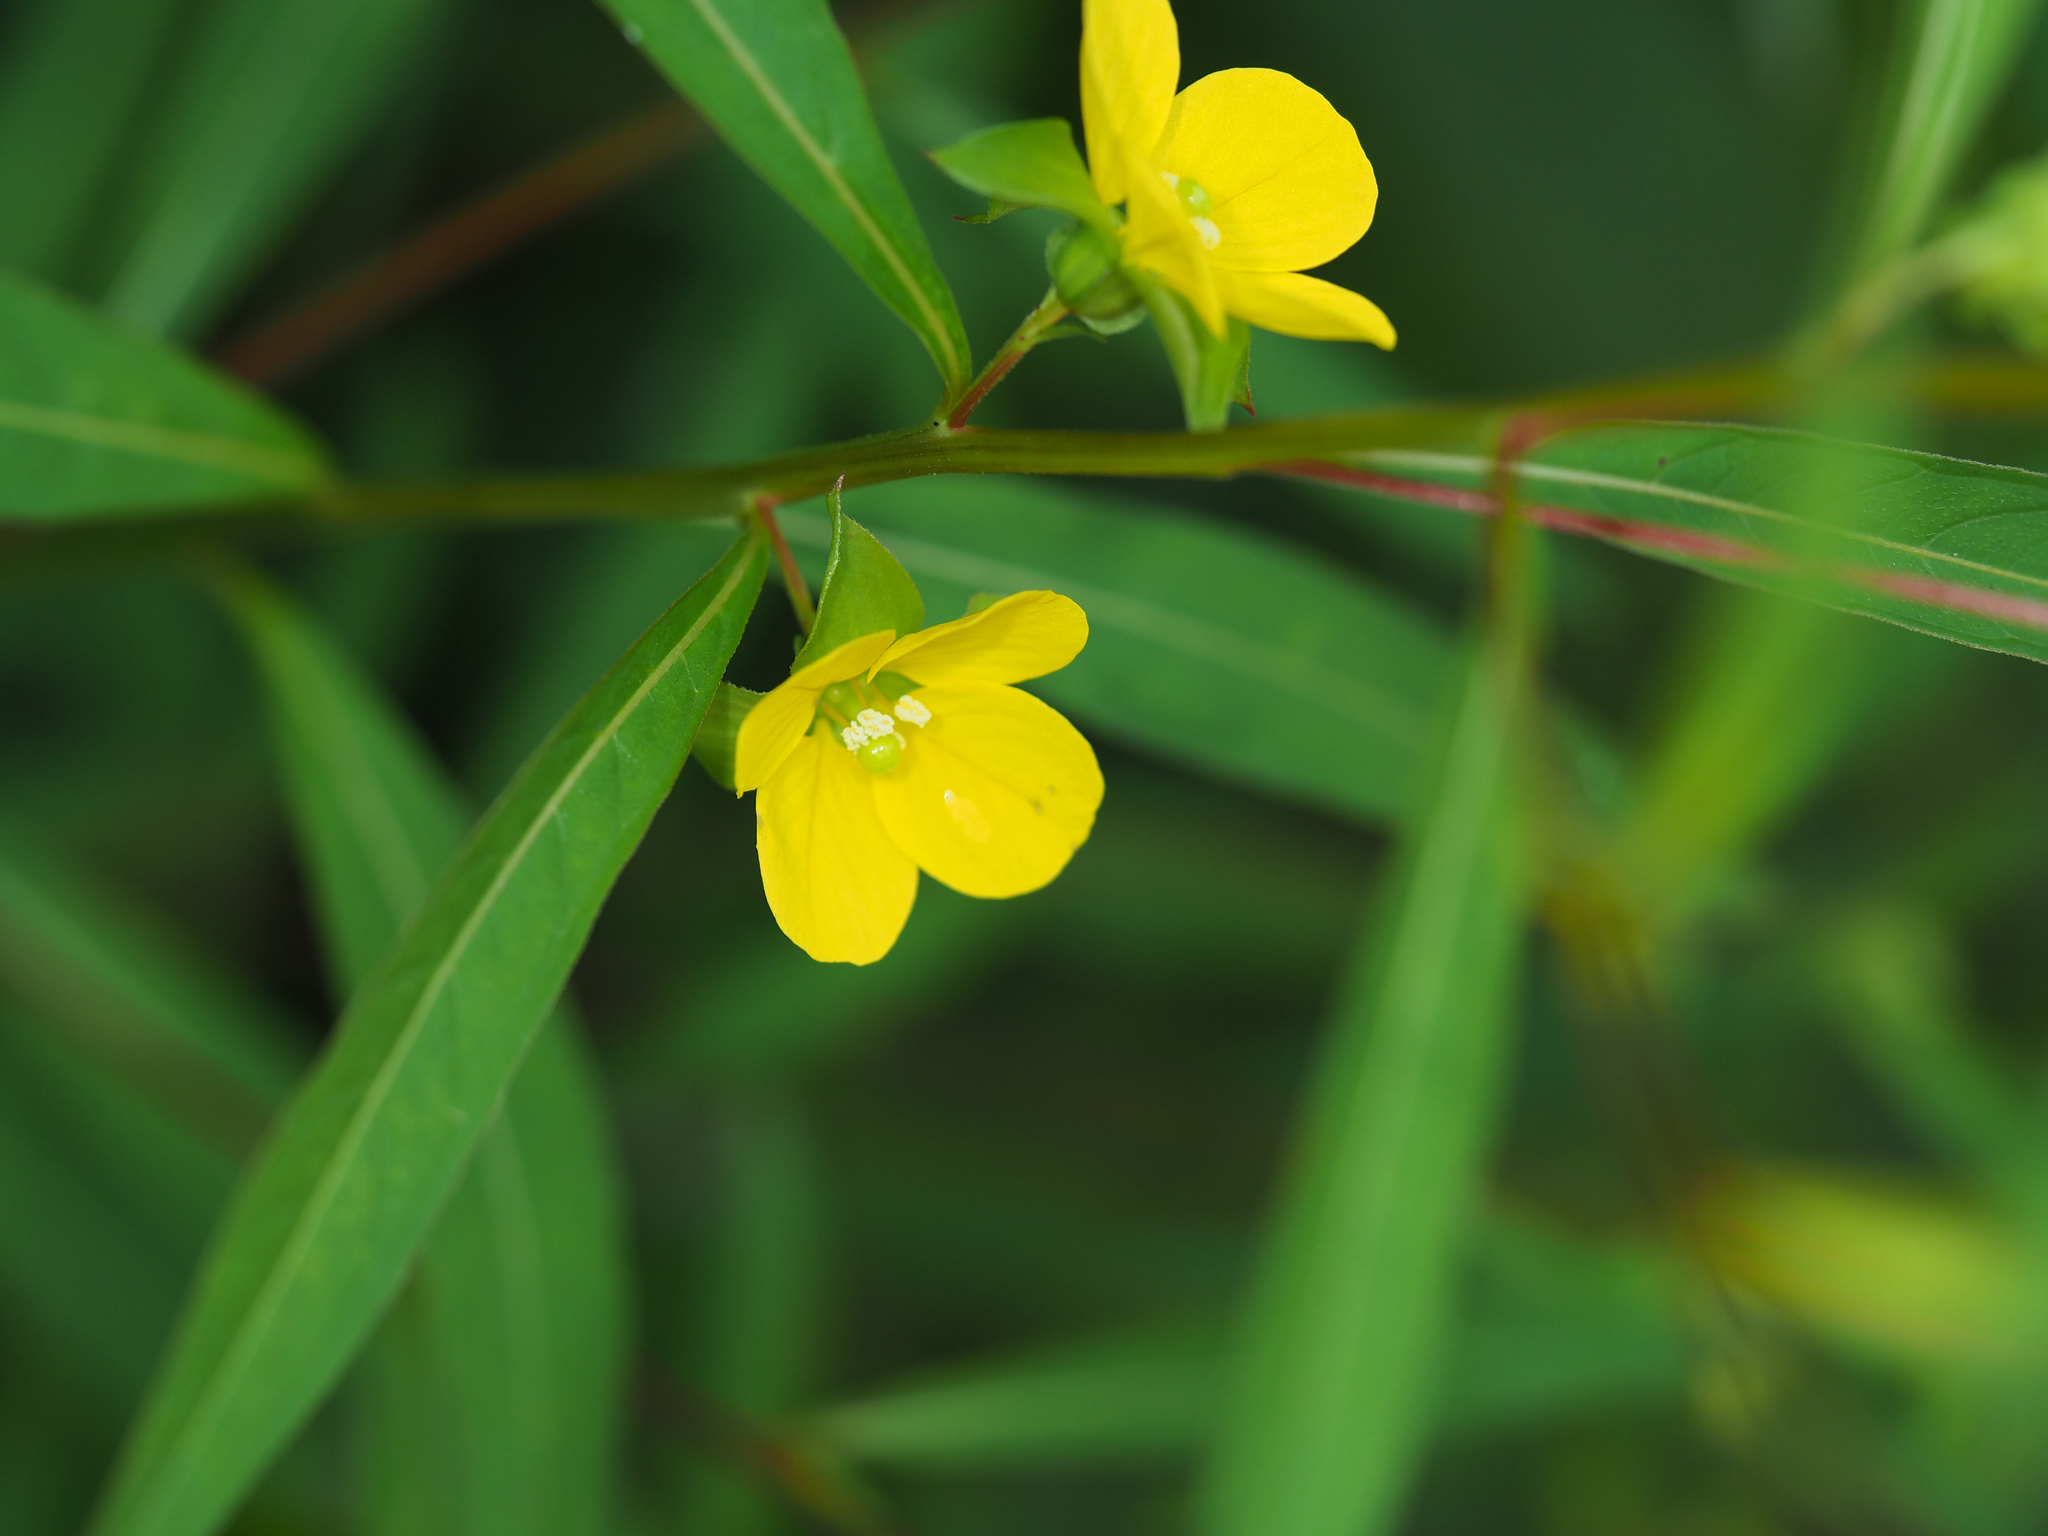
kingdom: Plantae
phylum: Tracheophyta
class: Magnoliopsida
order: Myrtales
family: Onagraceae
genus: Ludwigia
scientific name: Ludwigia alternifolia
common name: Rattlebox
